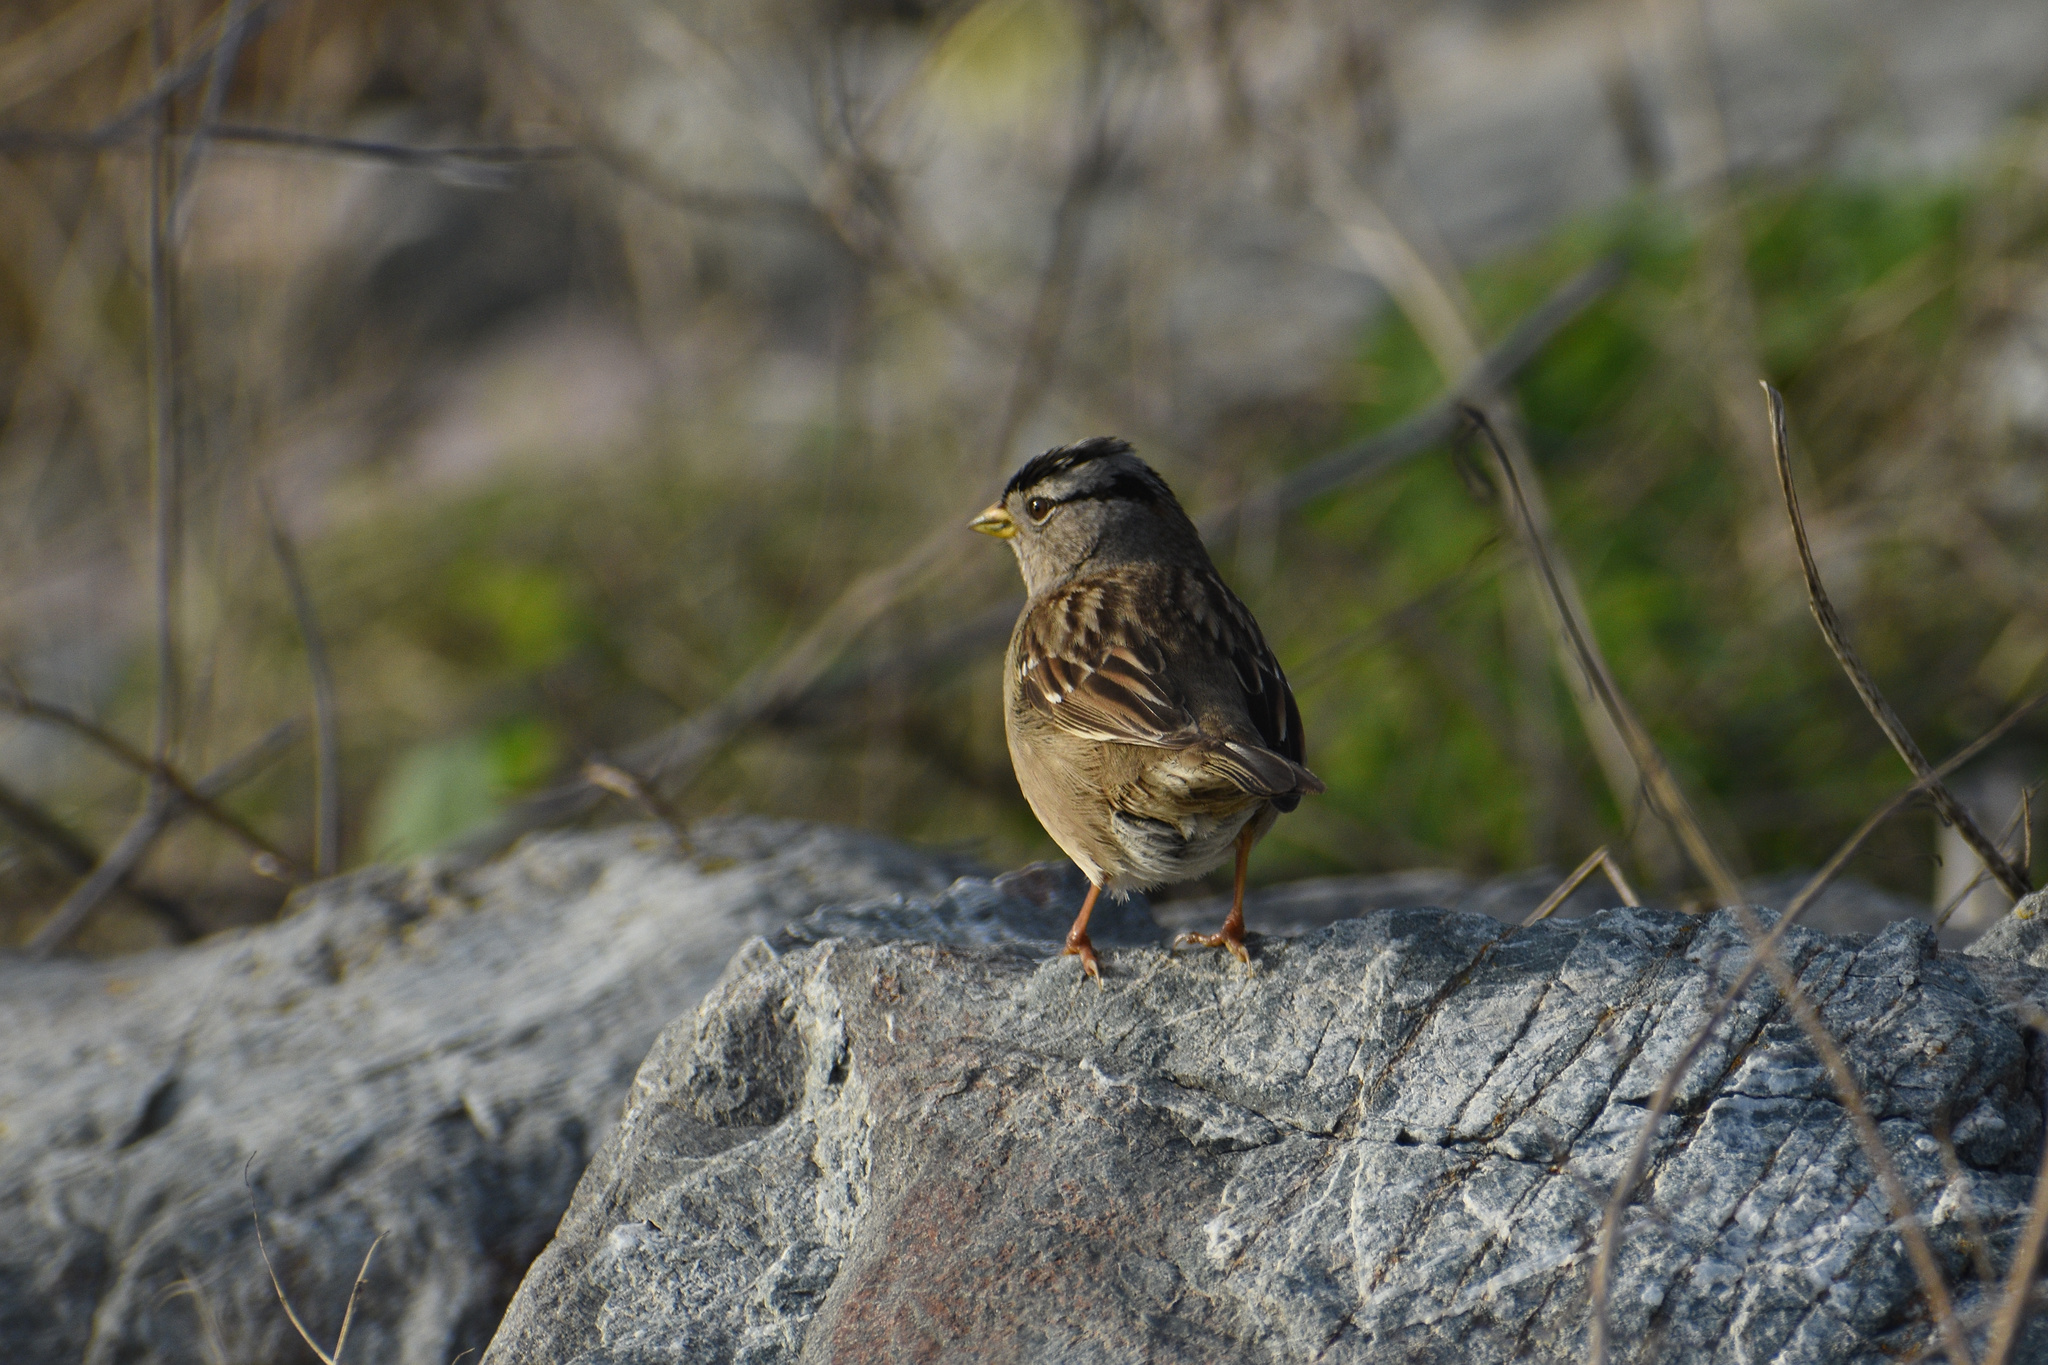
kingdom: Animalia
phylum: Chordata
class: Aves
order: Passeriformes
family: Passerellidae
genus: Zonotrichia
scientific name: Zonotrichia leucophrys
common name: White-crowned sparrow
